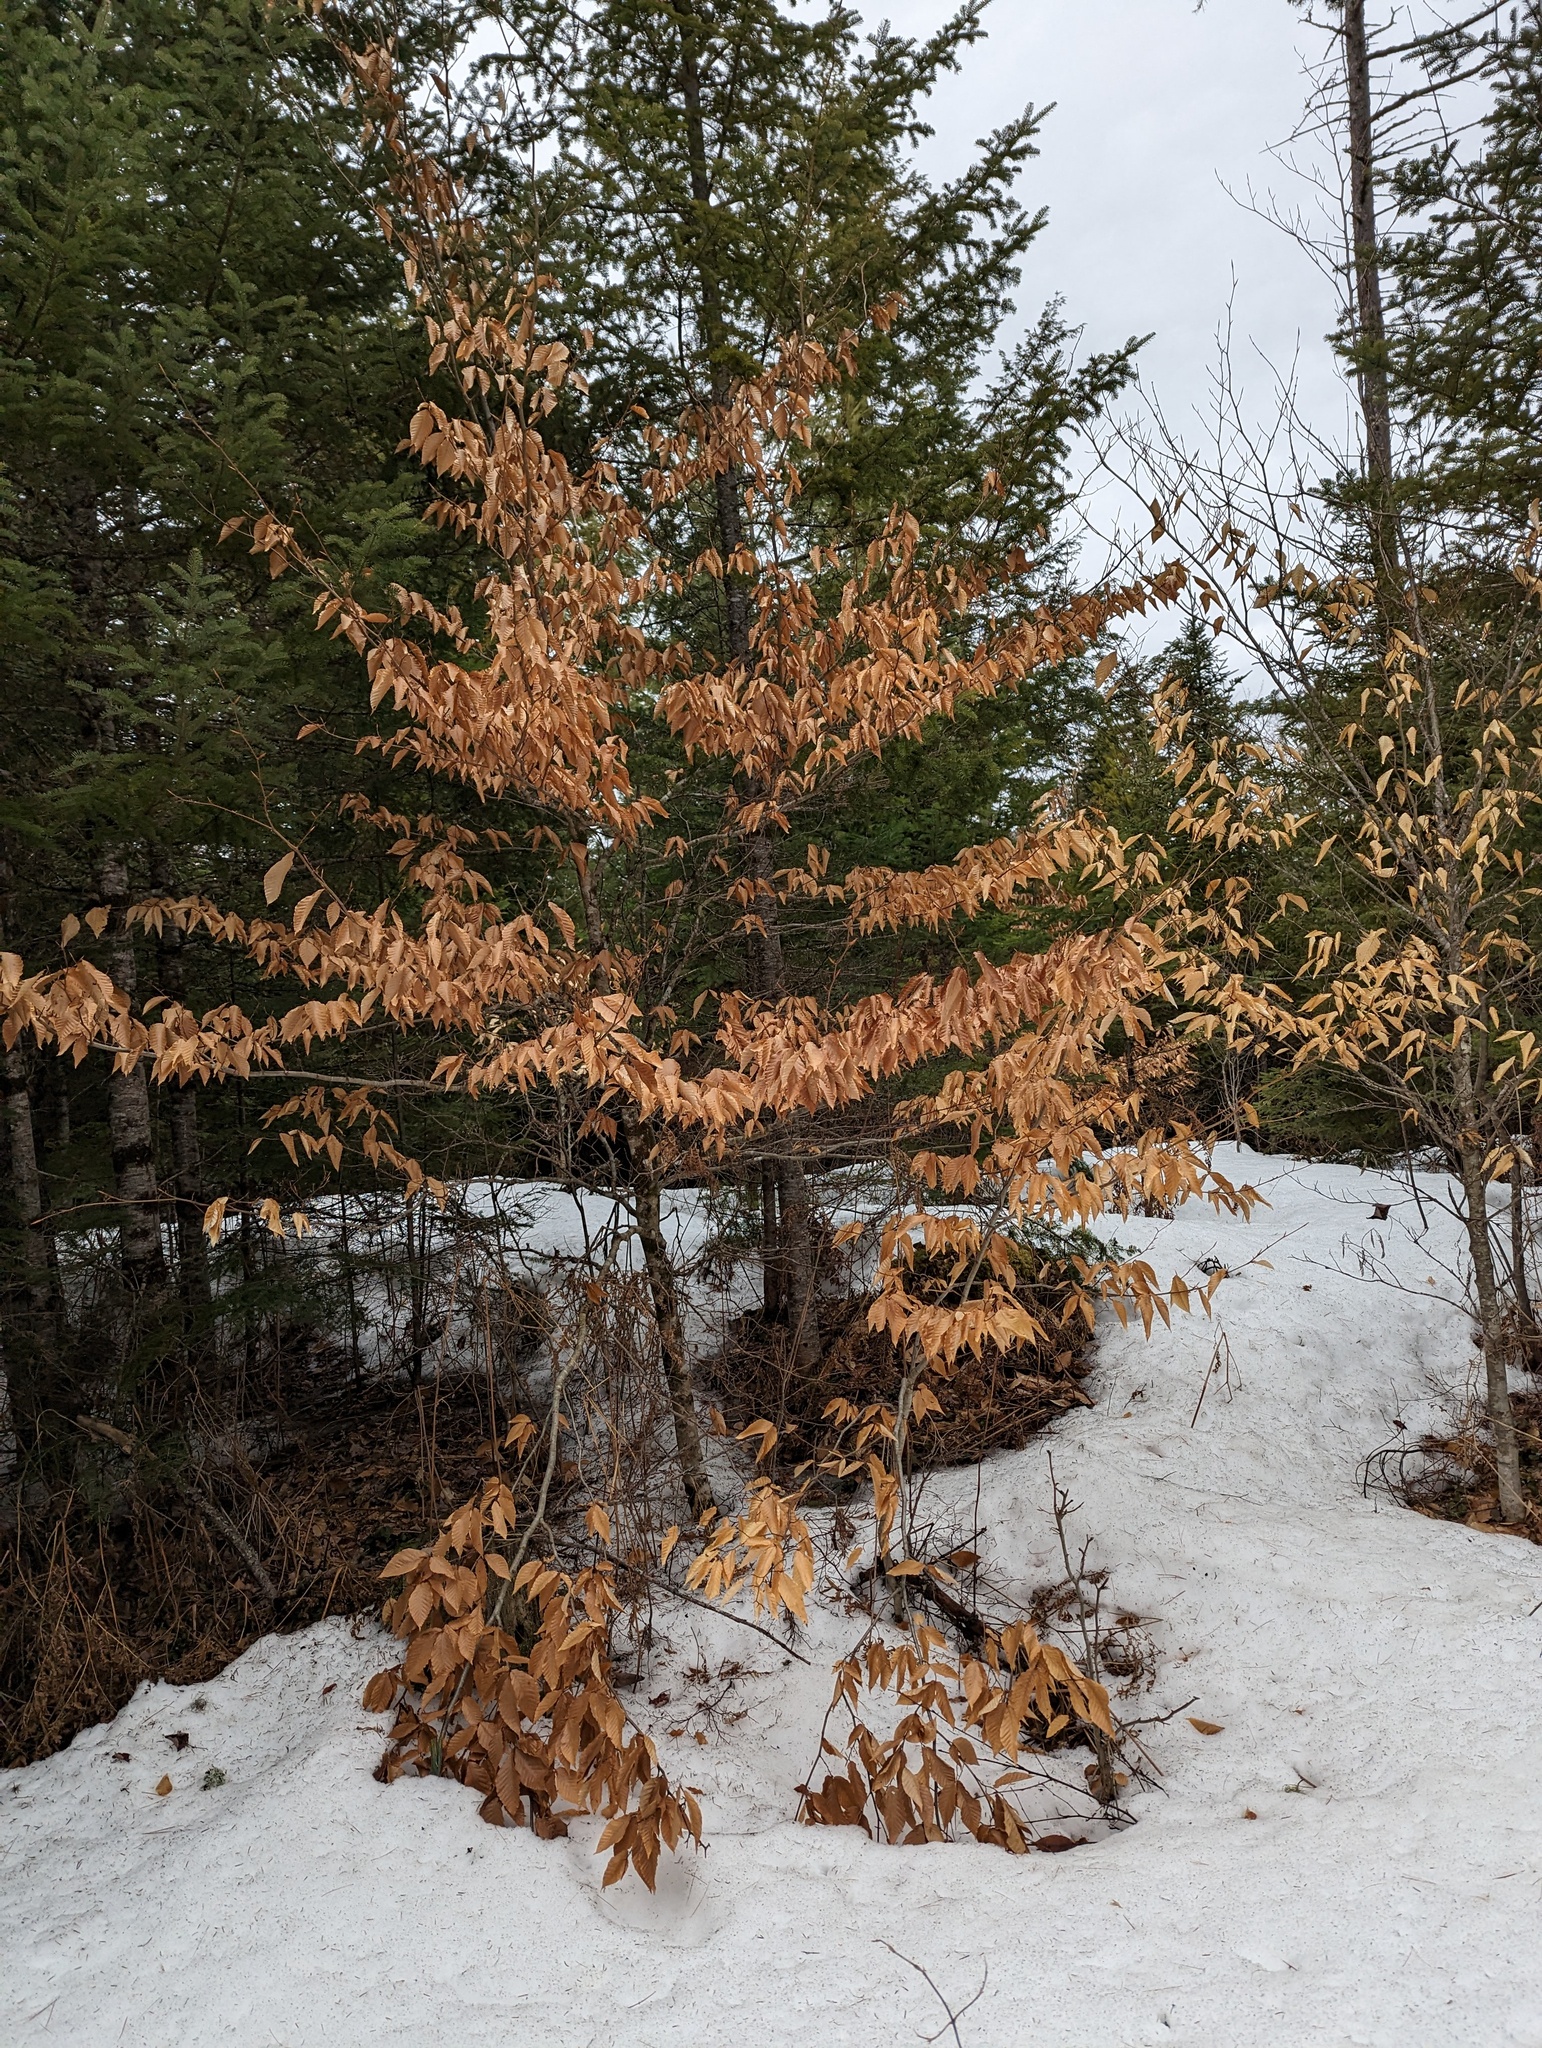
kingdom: Plantae
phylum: Tracheophyta
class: Magnoliopsida
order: Fagales
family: Fagaceae
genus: Fagus
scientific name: Fagus grandifolia
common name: American beech
